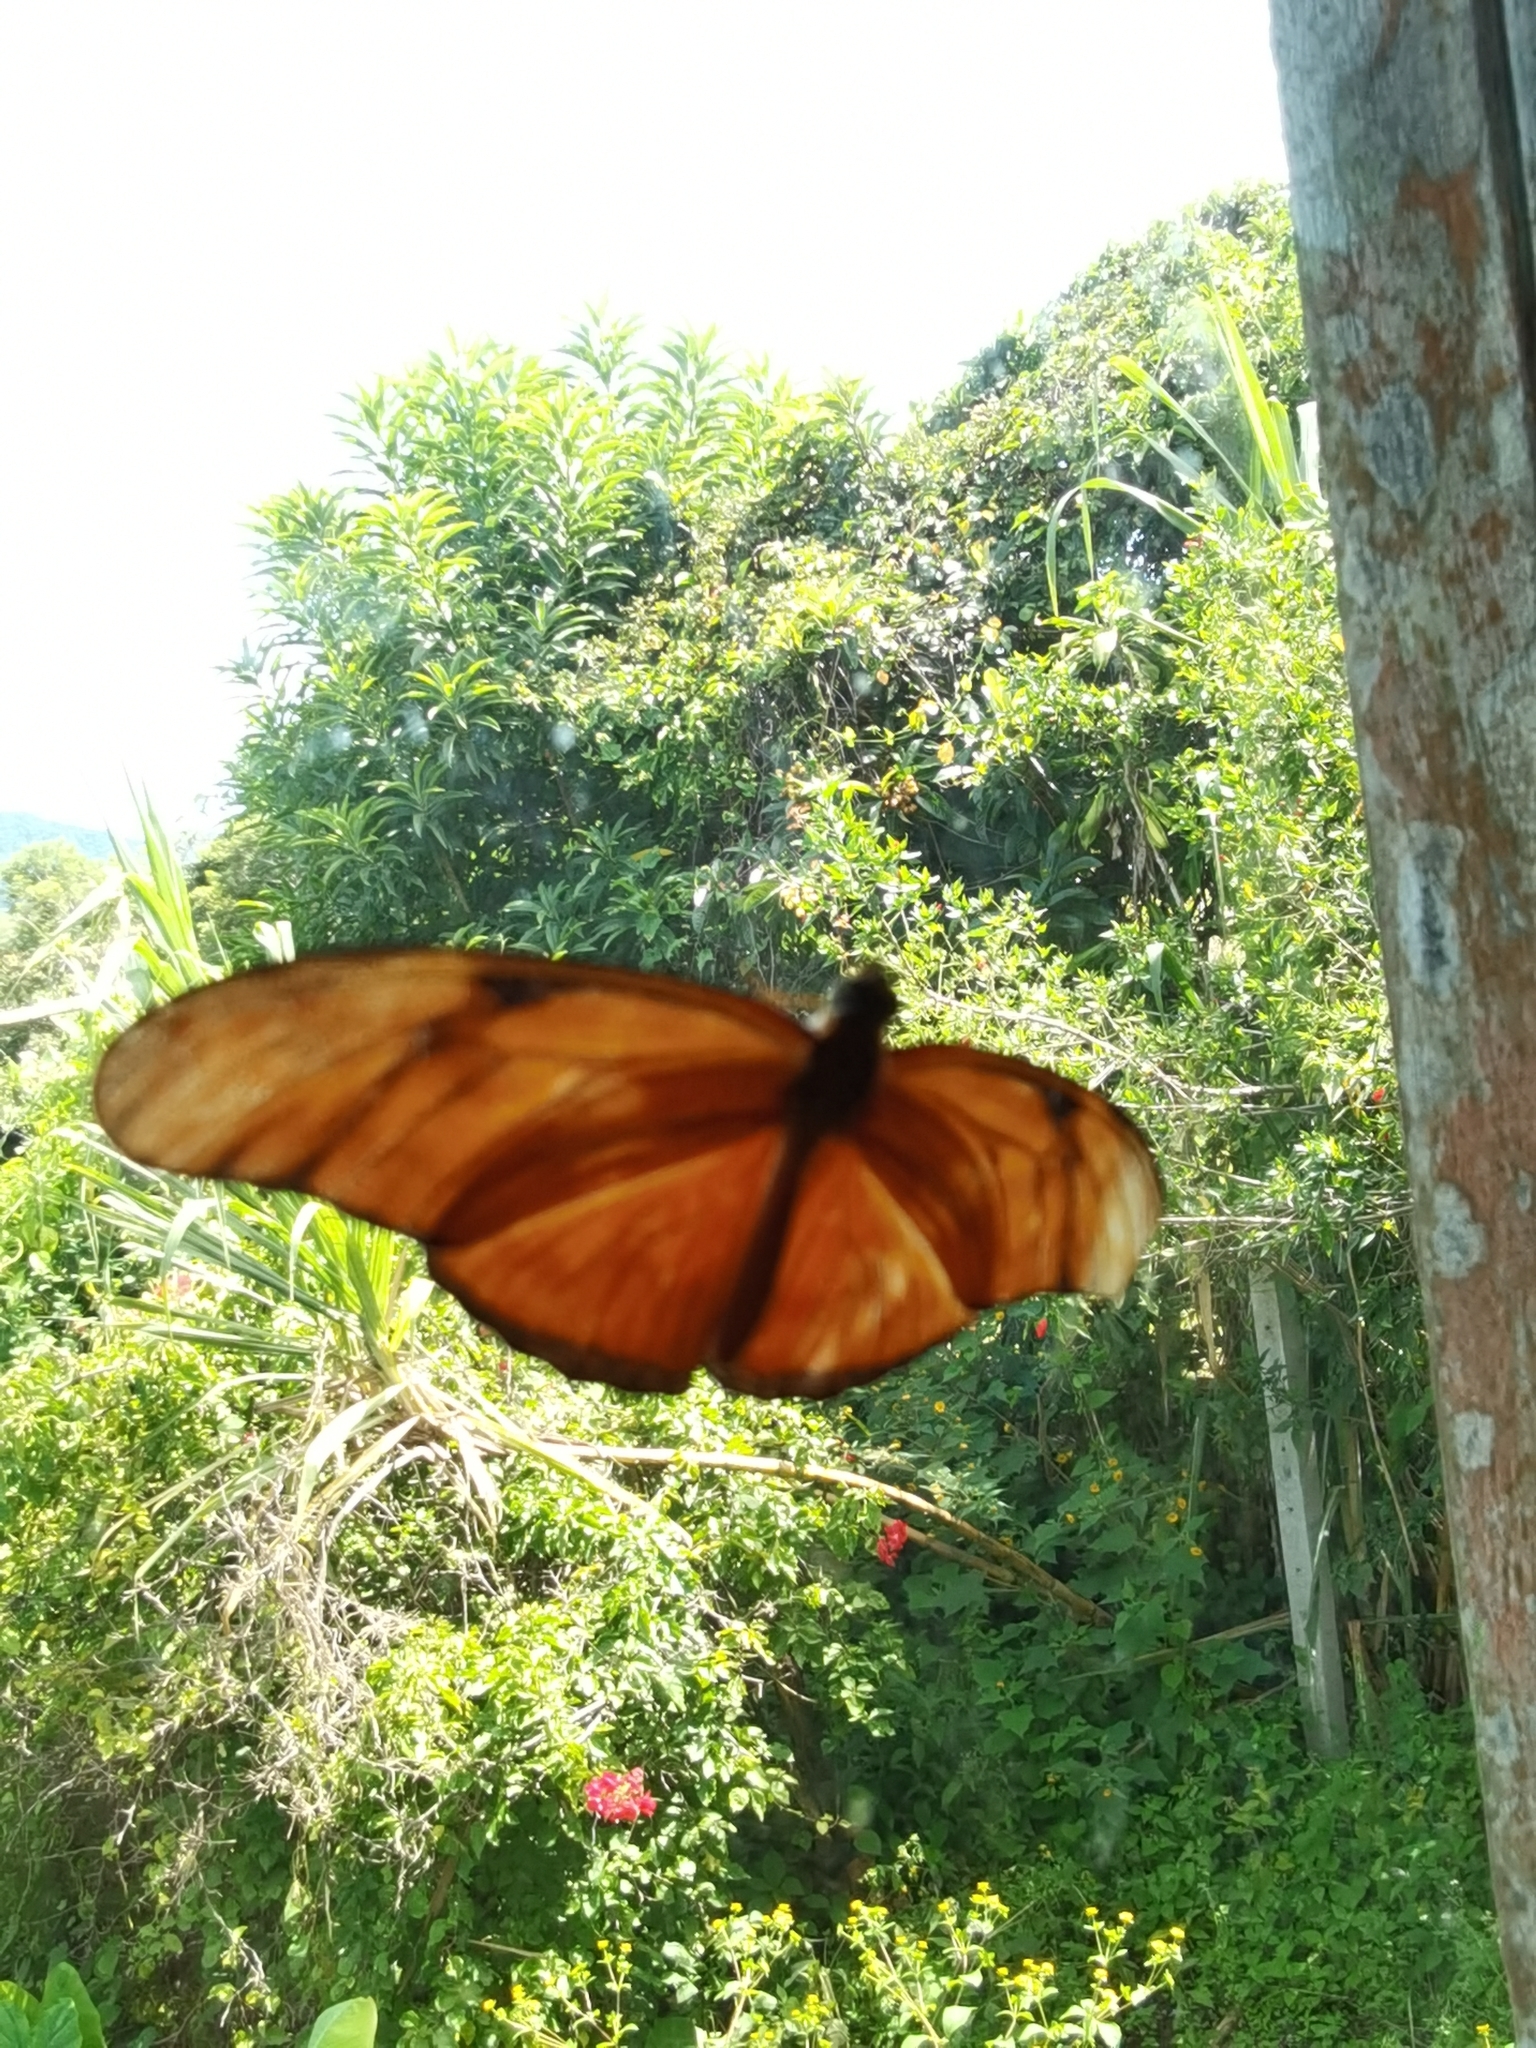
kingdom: Animalia
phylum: Arthropoda
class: Insecta
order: Lepidoptera
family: Nymphalidae
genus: Dryas
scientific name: Dryas iulia
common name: Flambeau
